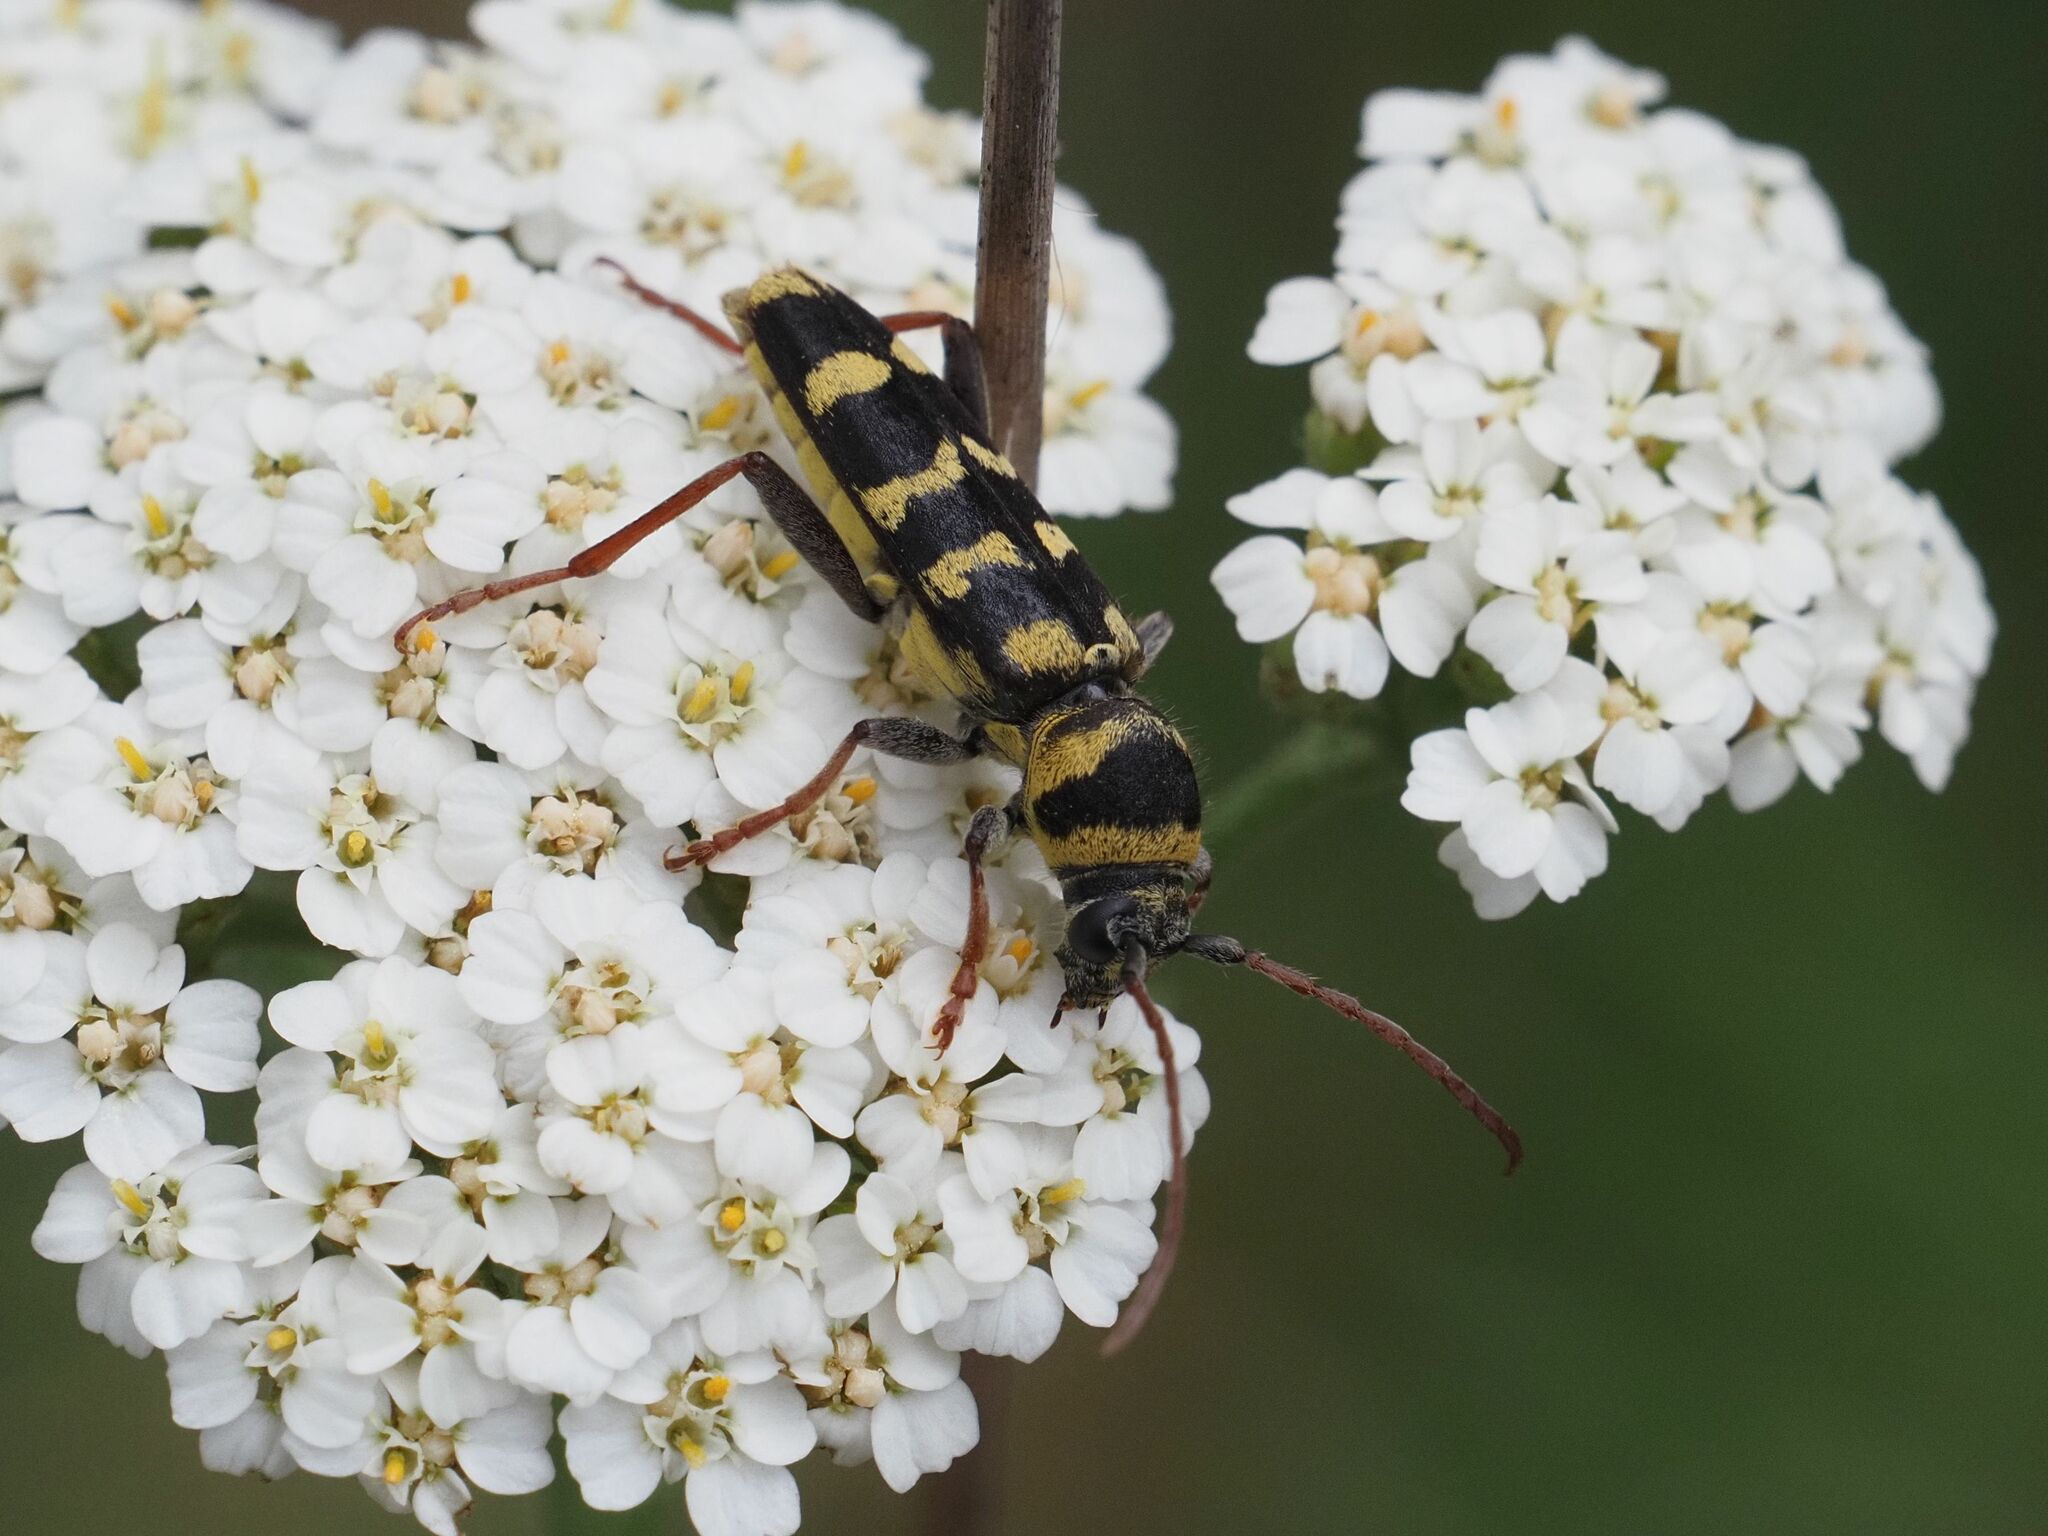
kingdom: Animalia
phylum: Arthropoda
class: Insecta
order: Coleoptera
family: Cerambycidae
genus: Plagionotus
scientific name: Plagionotus floralis
